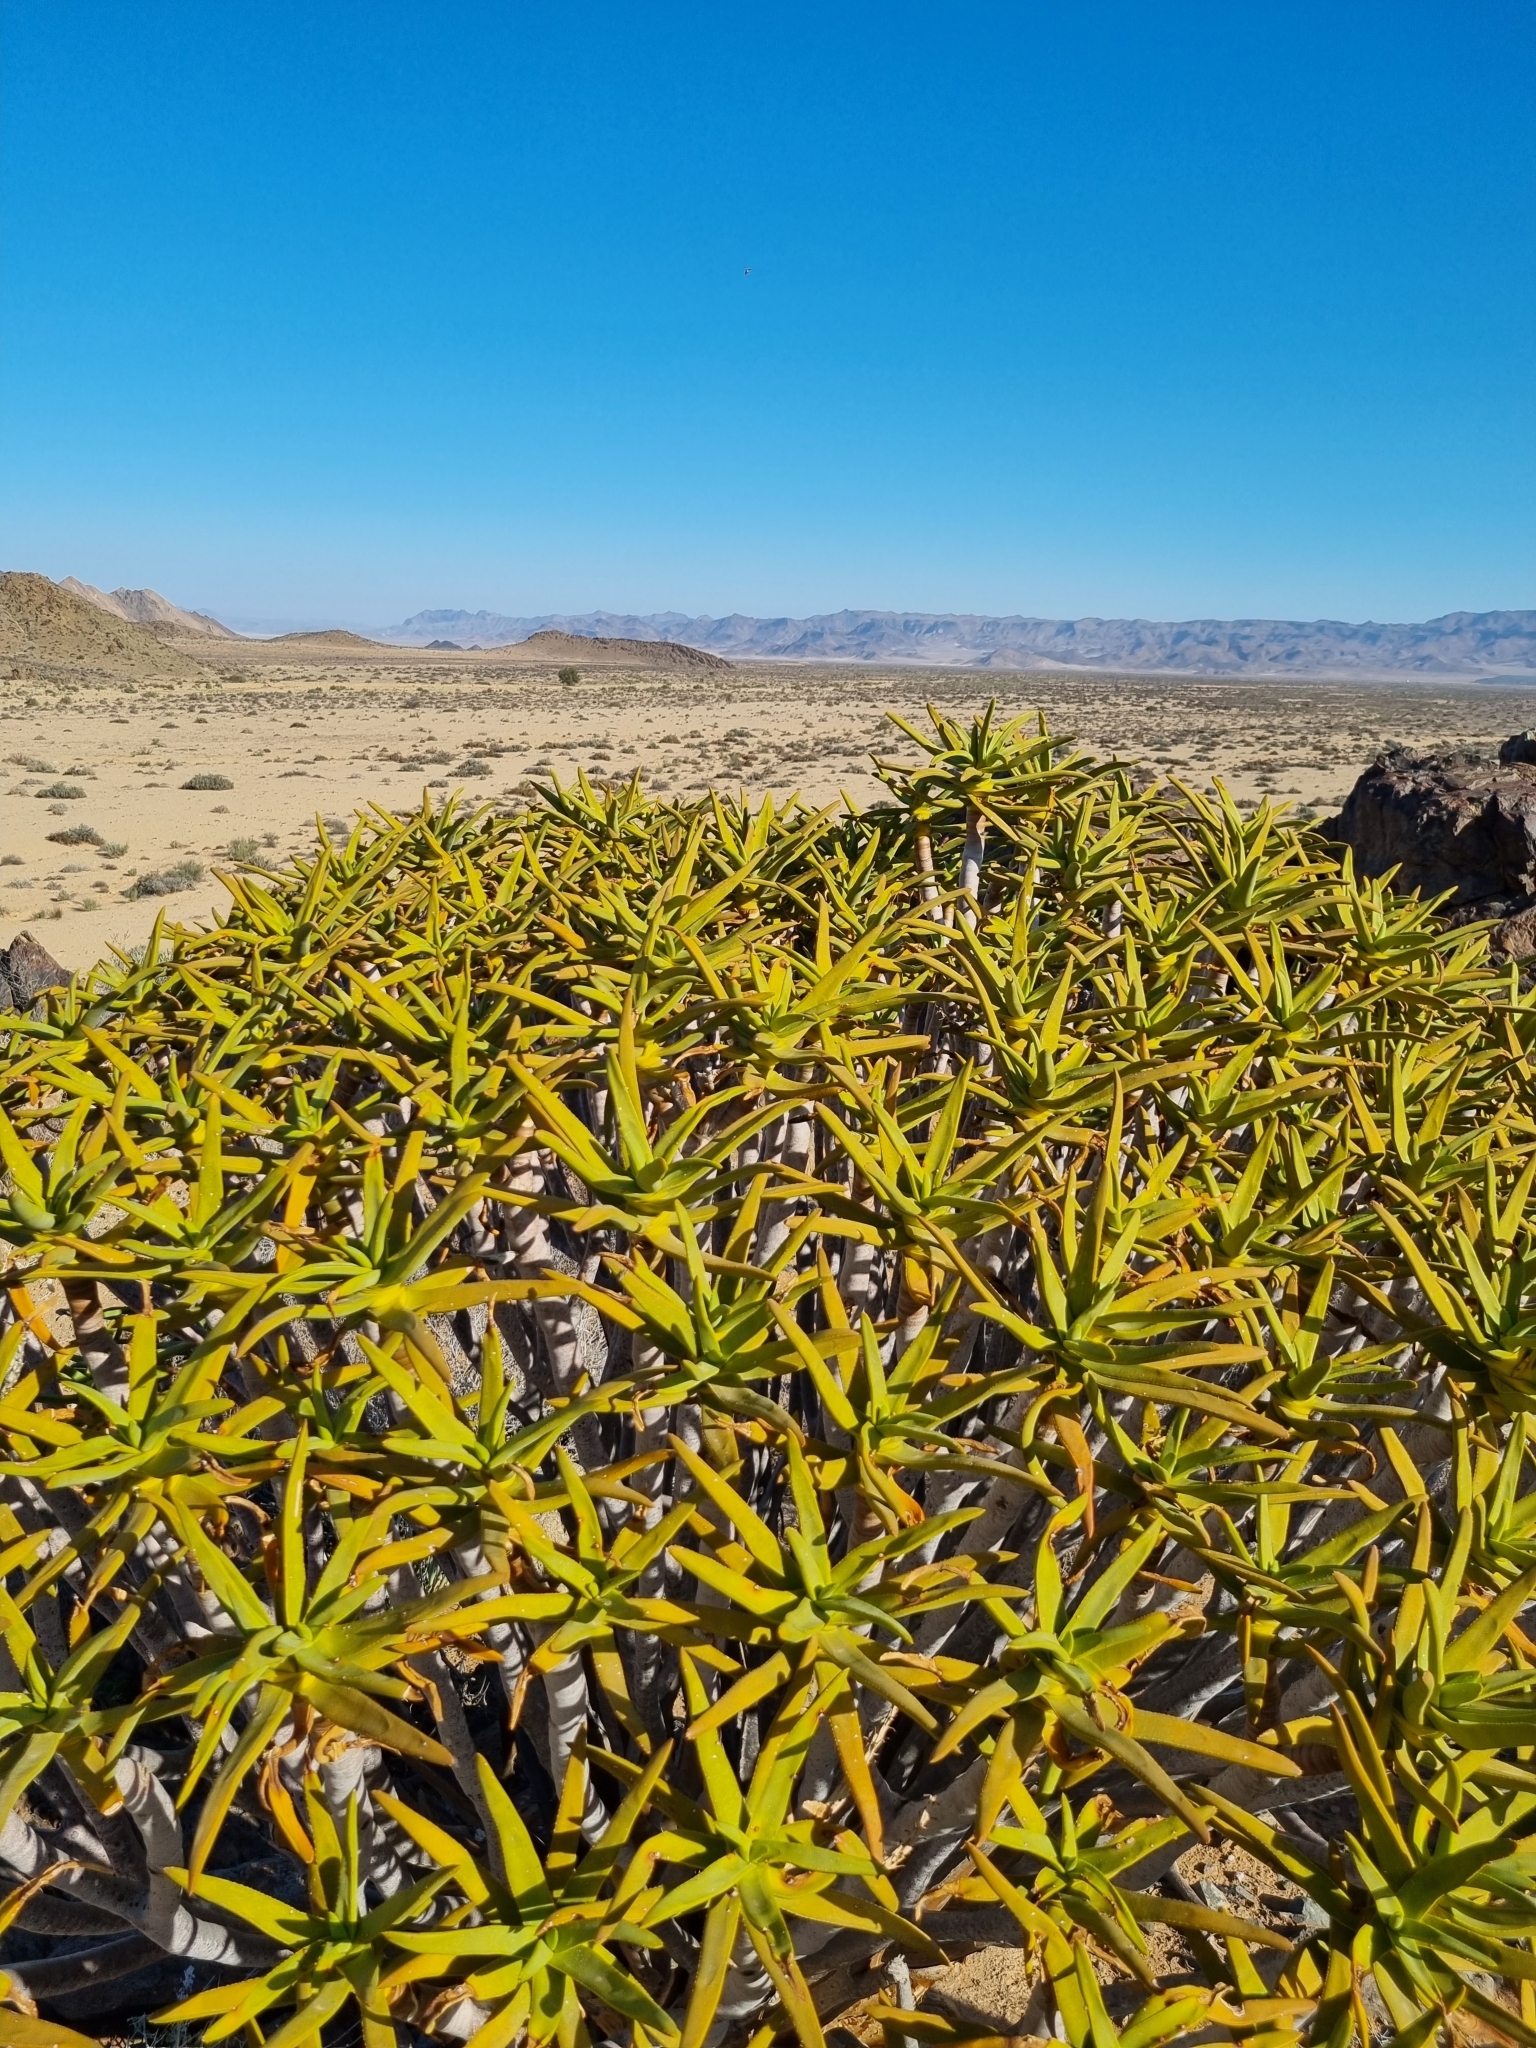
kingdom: Plantae
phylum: Tracheophyta
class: Liliopsida
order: Asparagales
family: Asphodelaceae
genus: Aloidendron
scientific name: Aloidendron ramosissimum
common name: Bush quiver tree
